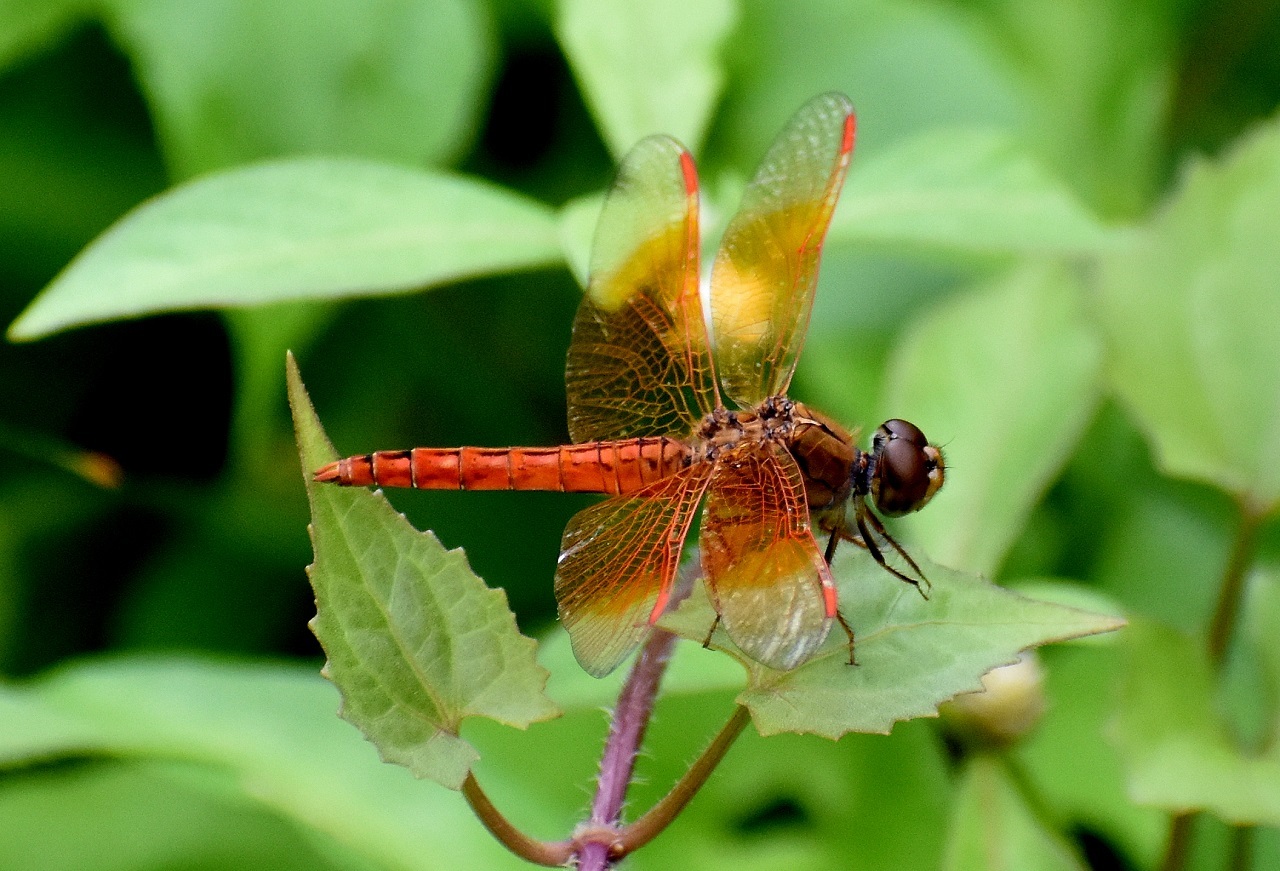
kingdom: Animalia
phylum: Arthropoda
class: Insecta
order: Odonata
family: Libellulidae
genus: Brachythemis
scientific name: Brachythemis contaminata
